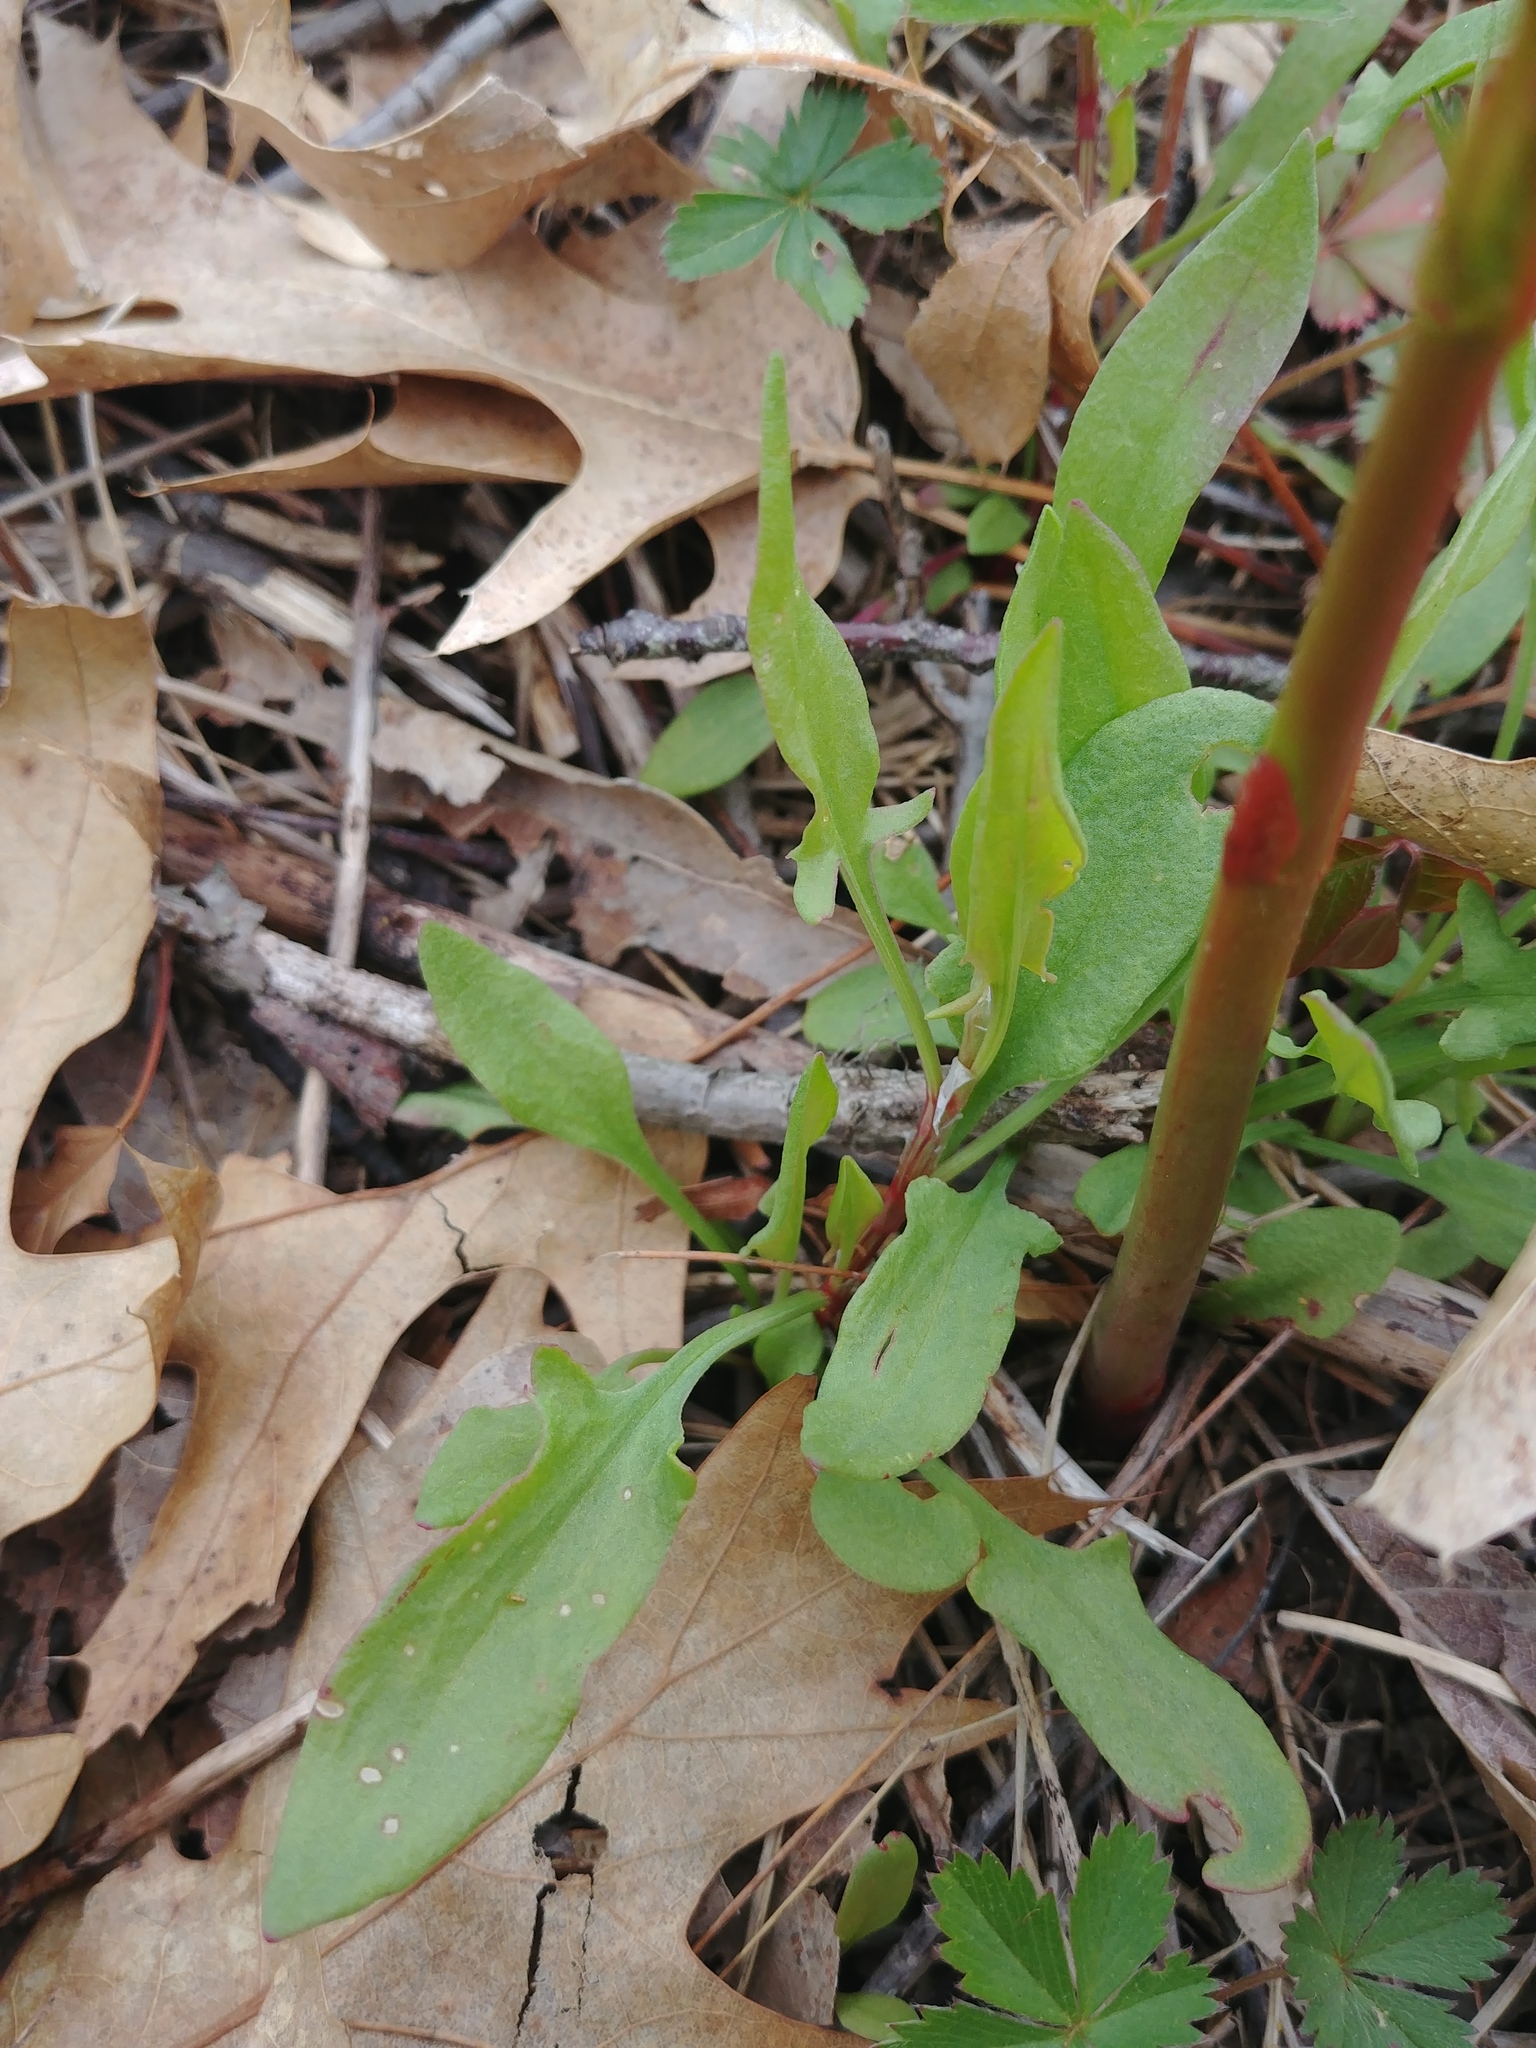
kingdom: Plantae
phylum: Tracheophyta
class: Magnoliopsida
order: Caryophyllales
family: Polygonaceae
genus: Rumex
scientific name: Rumex acetosella
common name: Common sheep sorrel
